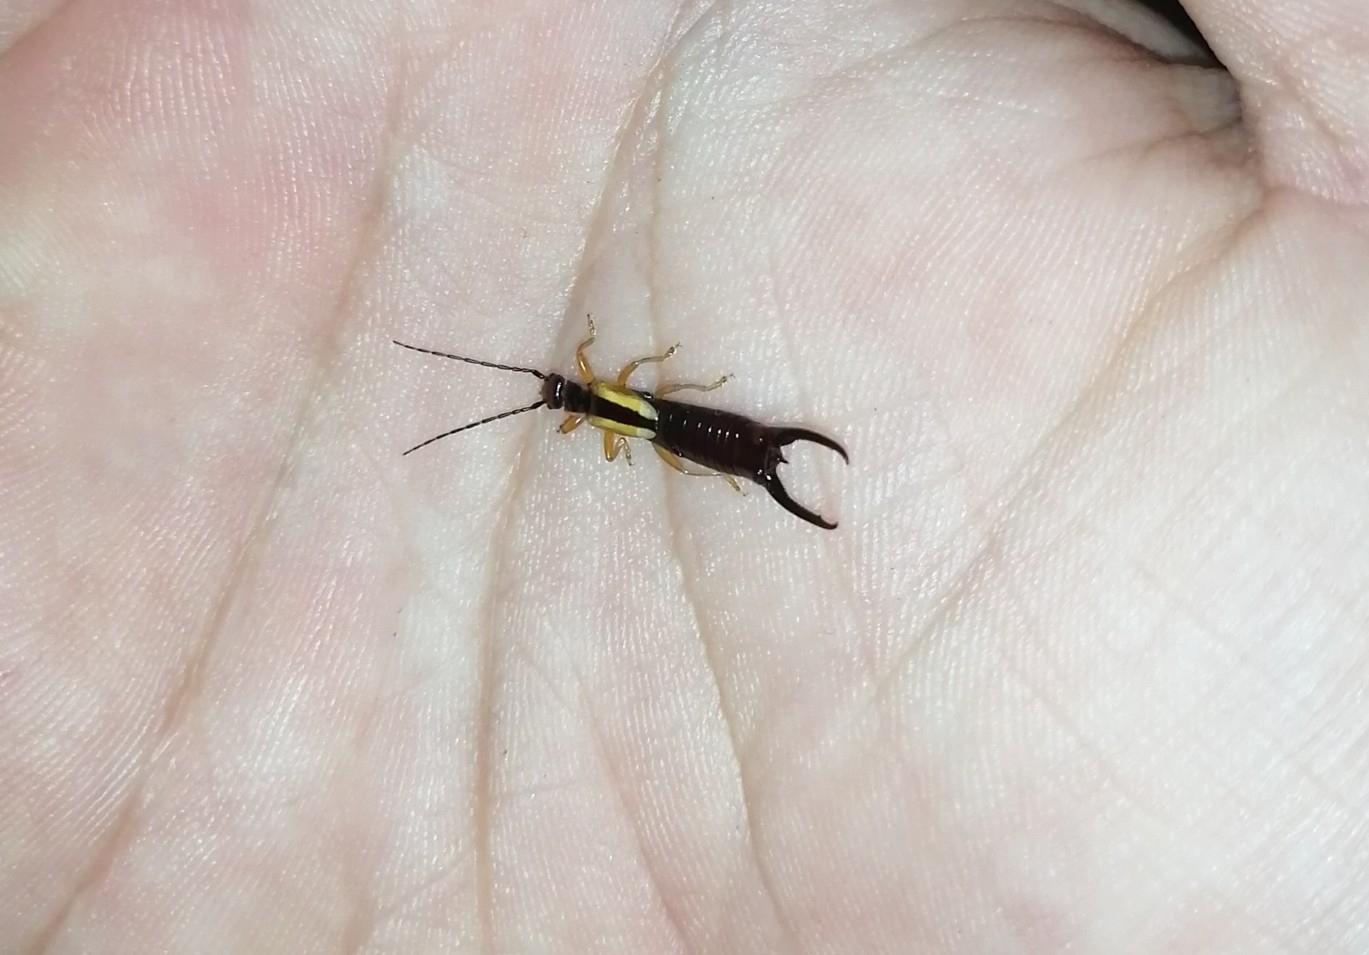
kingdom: Animalia
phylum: Arthropoda
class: Insecta
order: Dermaptera
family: Forficulidae
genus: Doru
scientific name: Doru taeniatum
